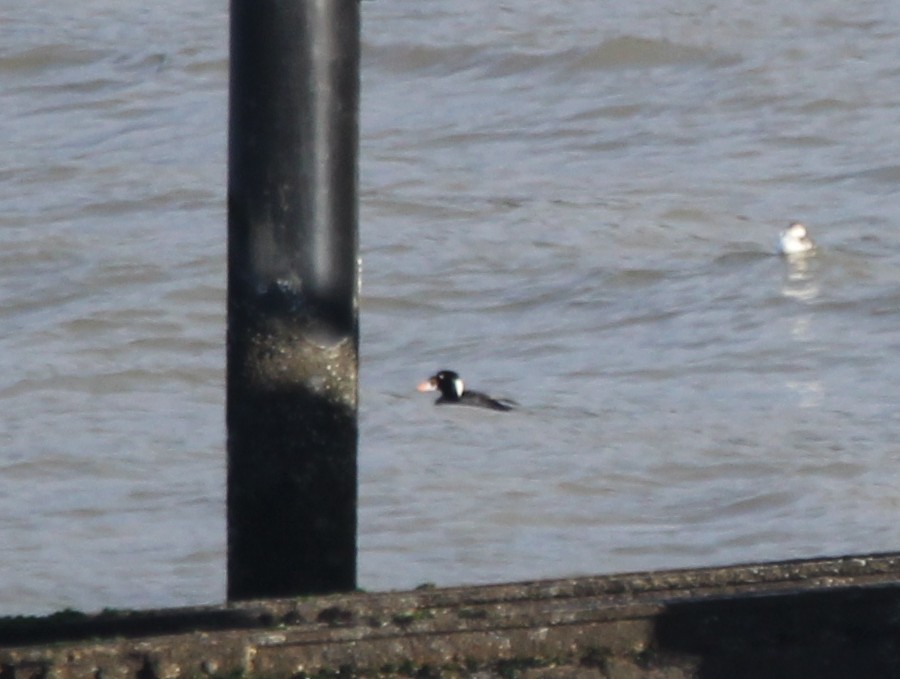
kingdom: Animalia
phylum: Chordata
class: Aves
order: Anseriformes
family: Anatidae
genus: Melanitta
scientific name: Melanitta perspicillata
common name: Surf scoter
